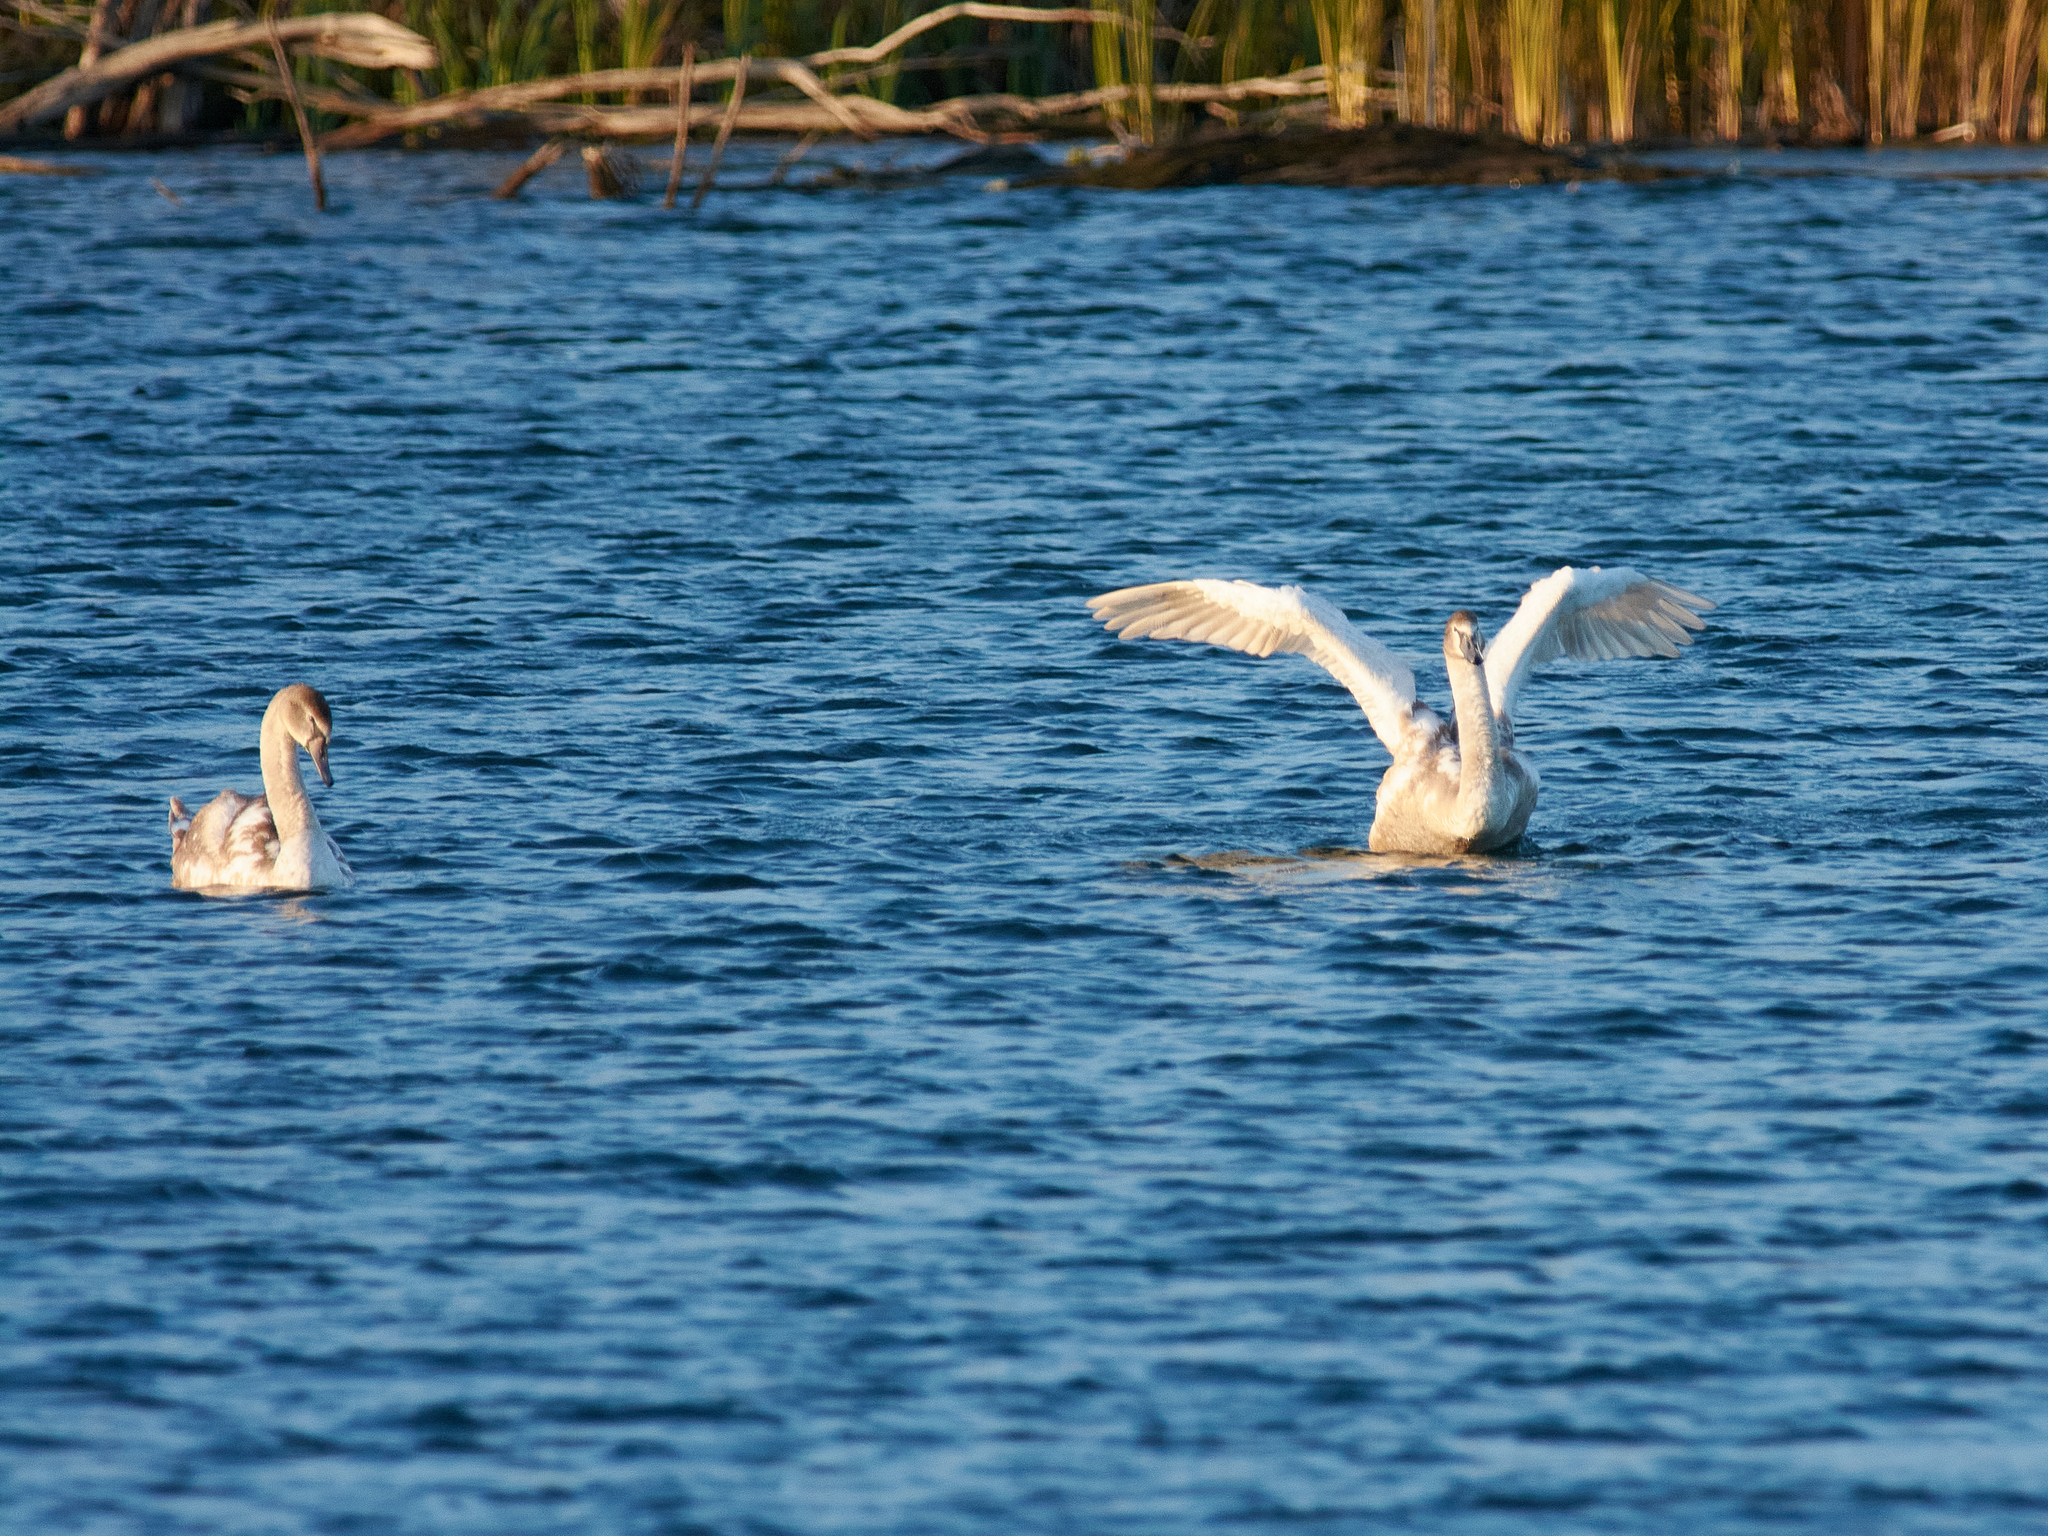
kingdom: Animalia
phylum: Chordata
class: Aves
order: Anseriformes
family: Anatidae
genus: Cygnus
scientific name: Cygnus olor
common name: Mute swan
